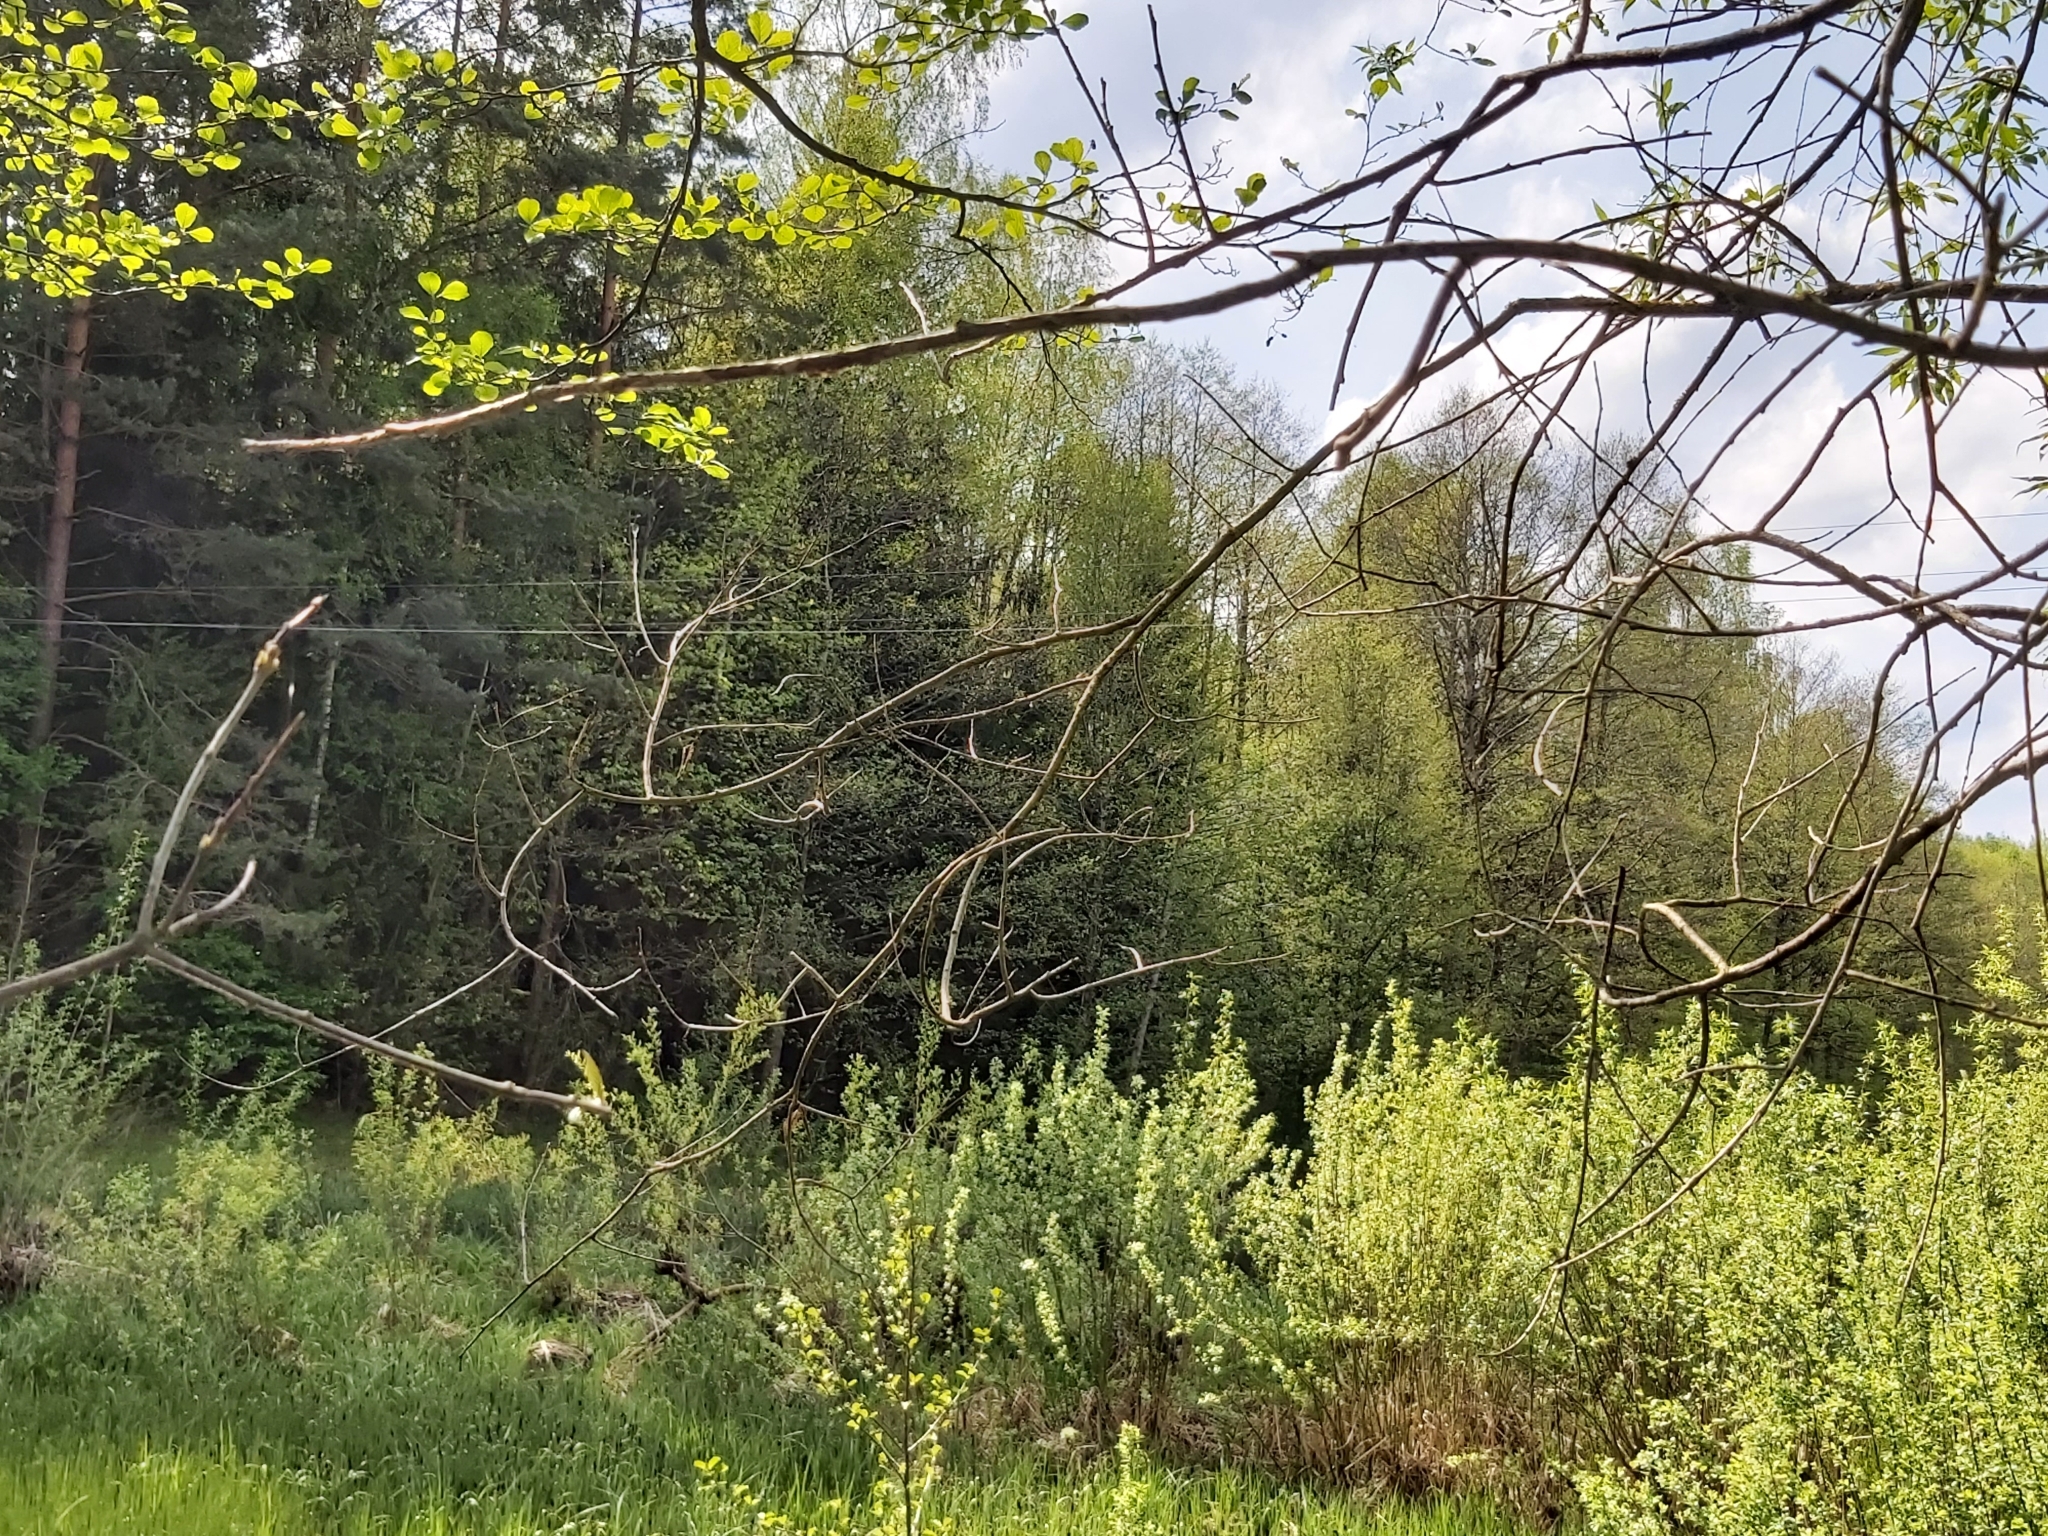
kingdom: Animalia
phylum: Chordata
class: Aves
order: Cuculiformes
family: Cuculidae
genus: Cuculus
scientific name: Cuculus canorus
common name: Common cuckoo
